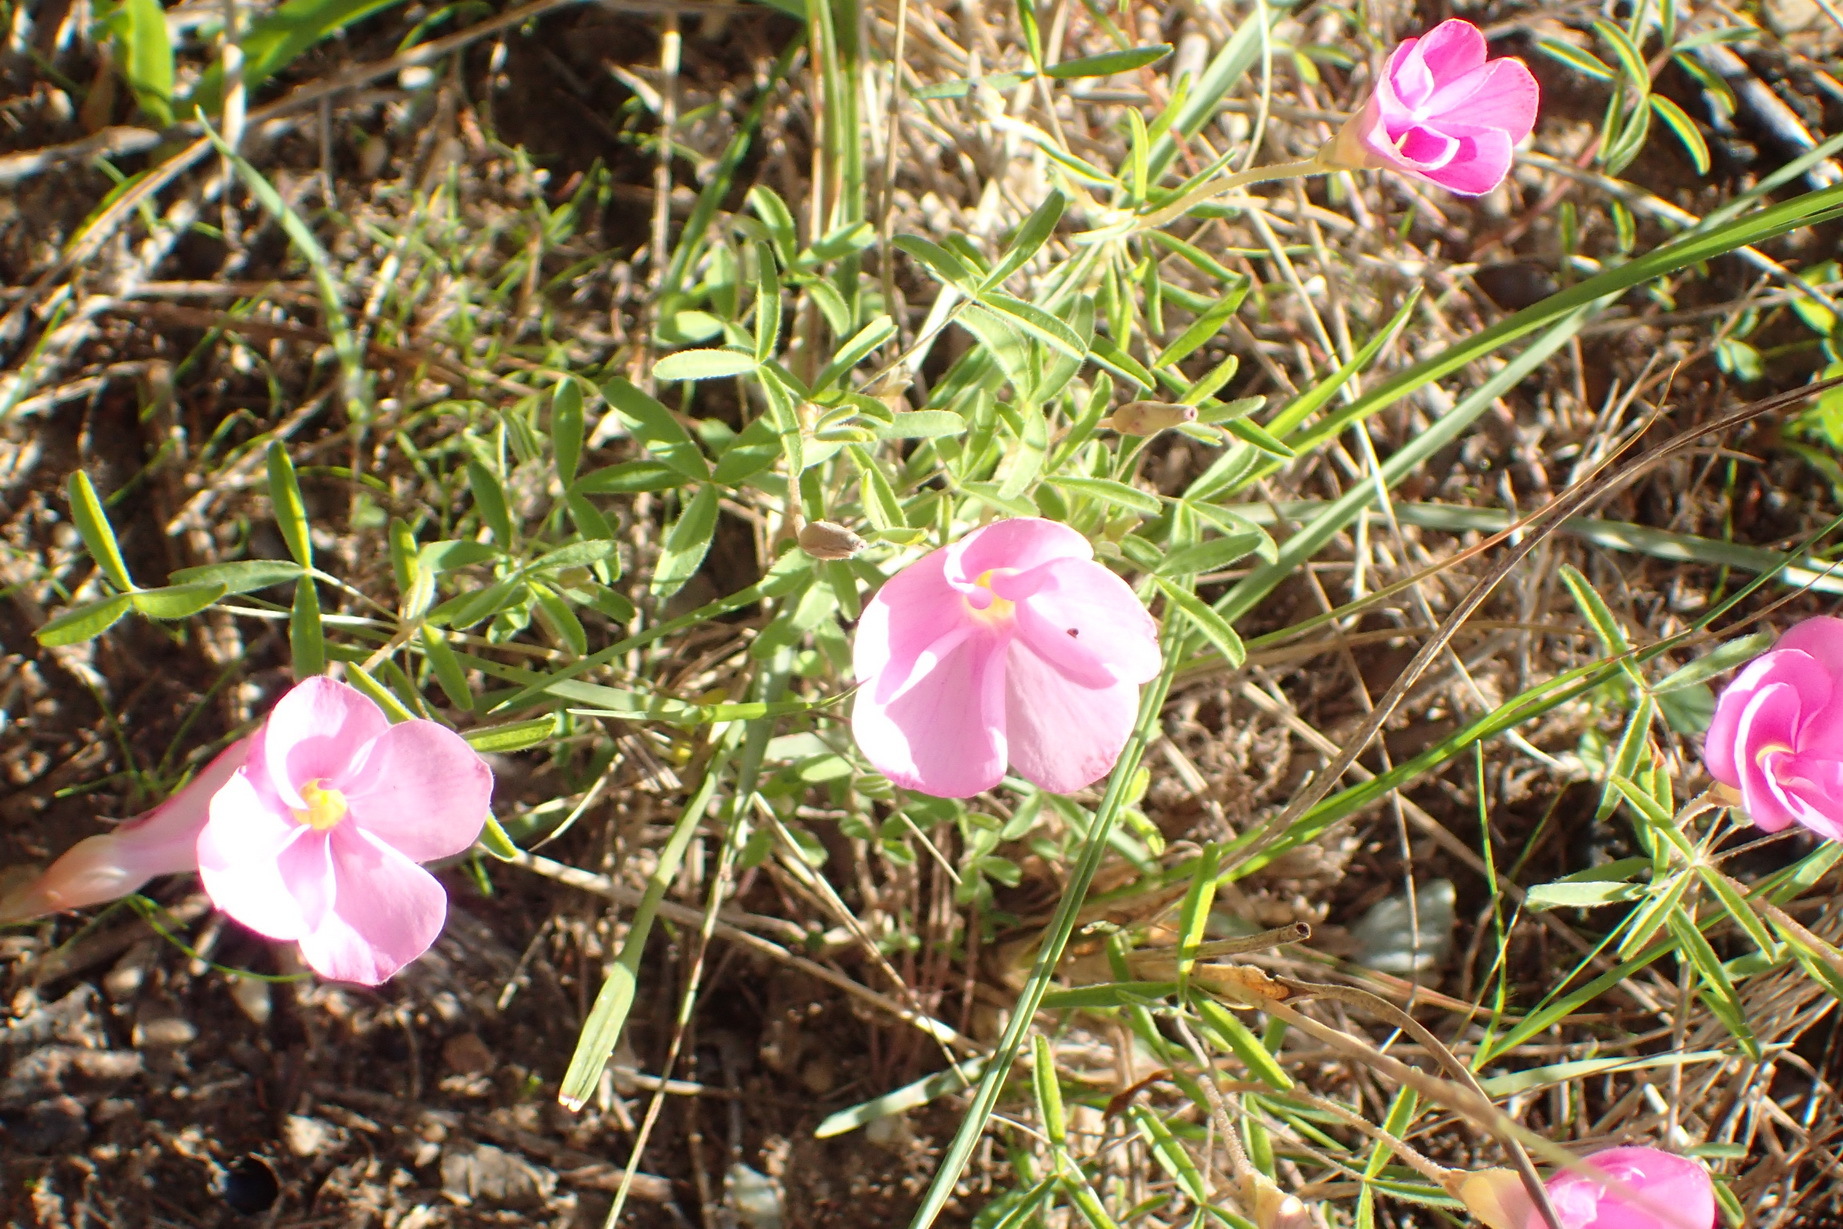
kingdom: Plantae
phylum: Tracheophyta
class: Magnoliopsida
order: Oxalidales
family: Oxalidaceae
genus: Oxalis
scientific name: Oxalis ciliaris
